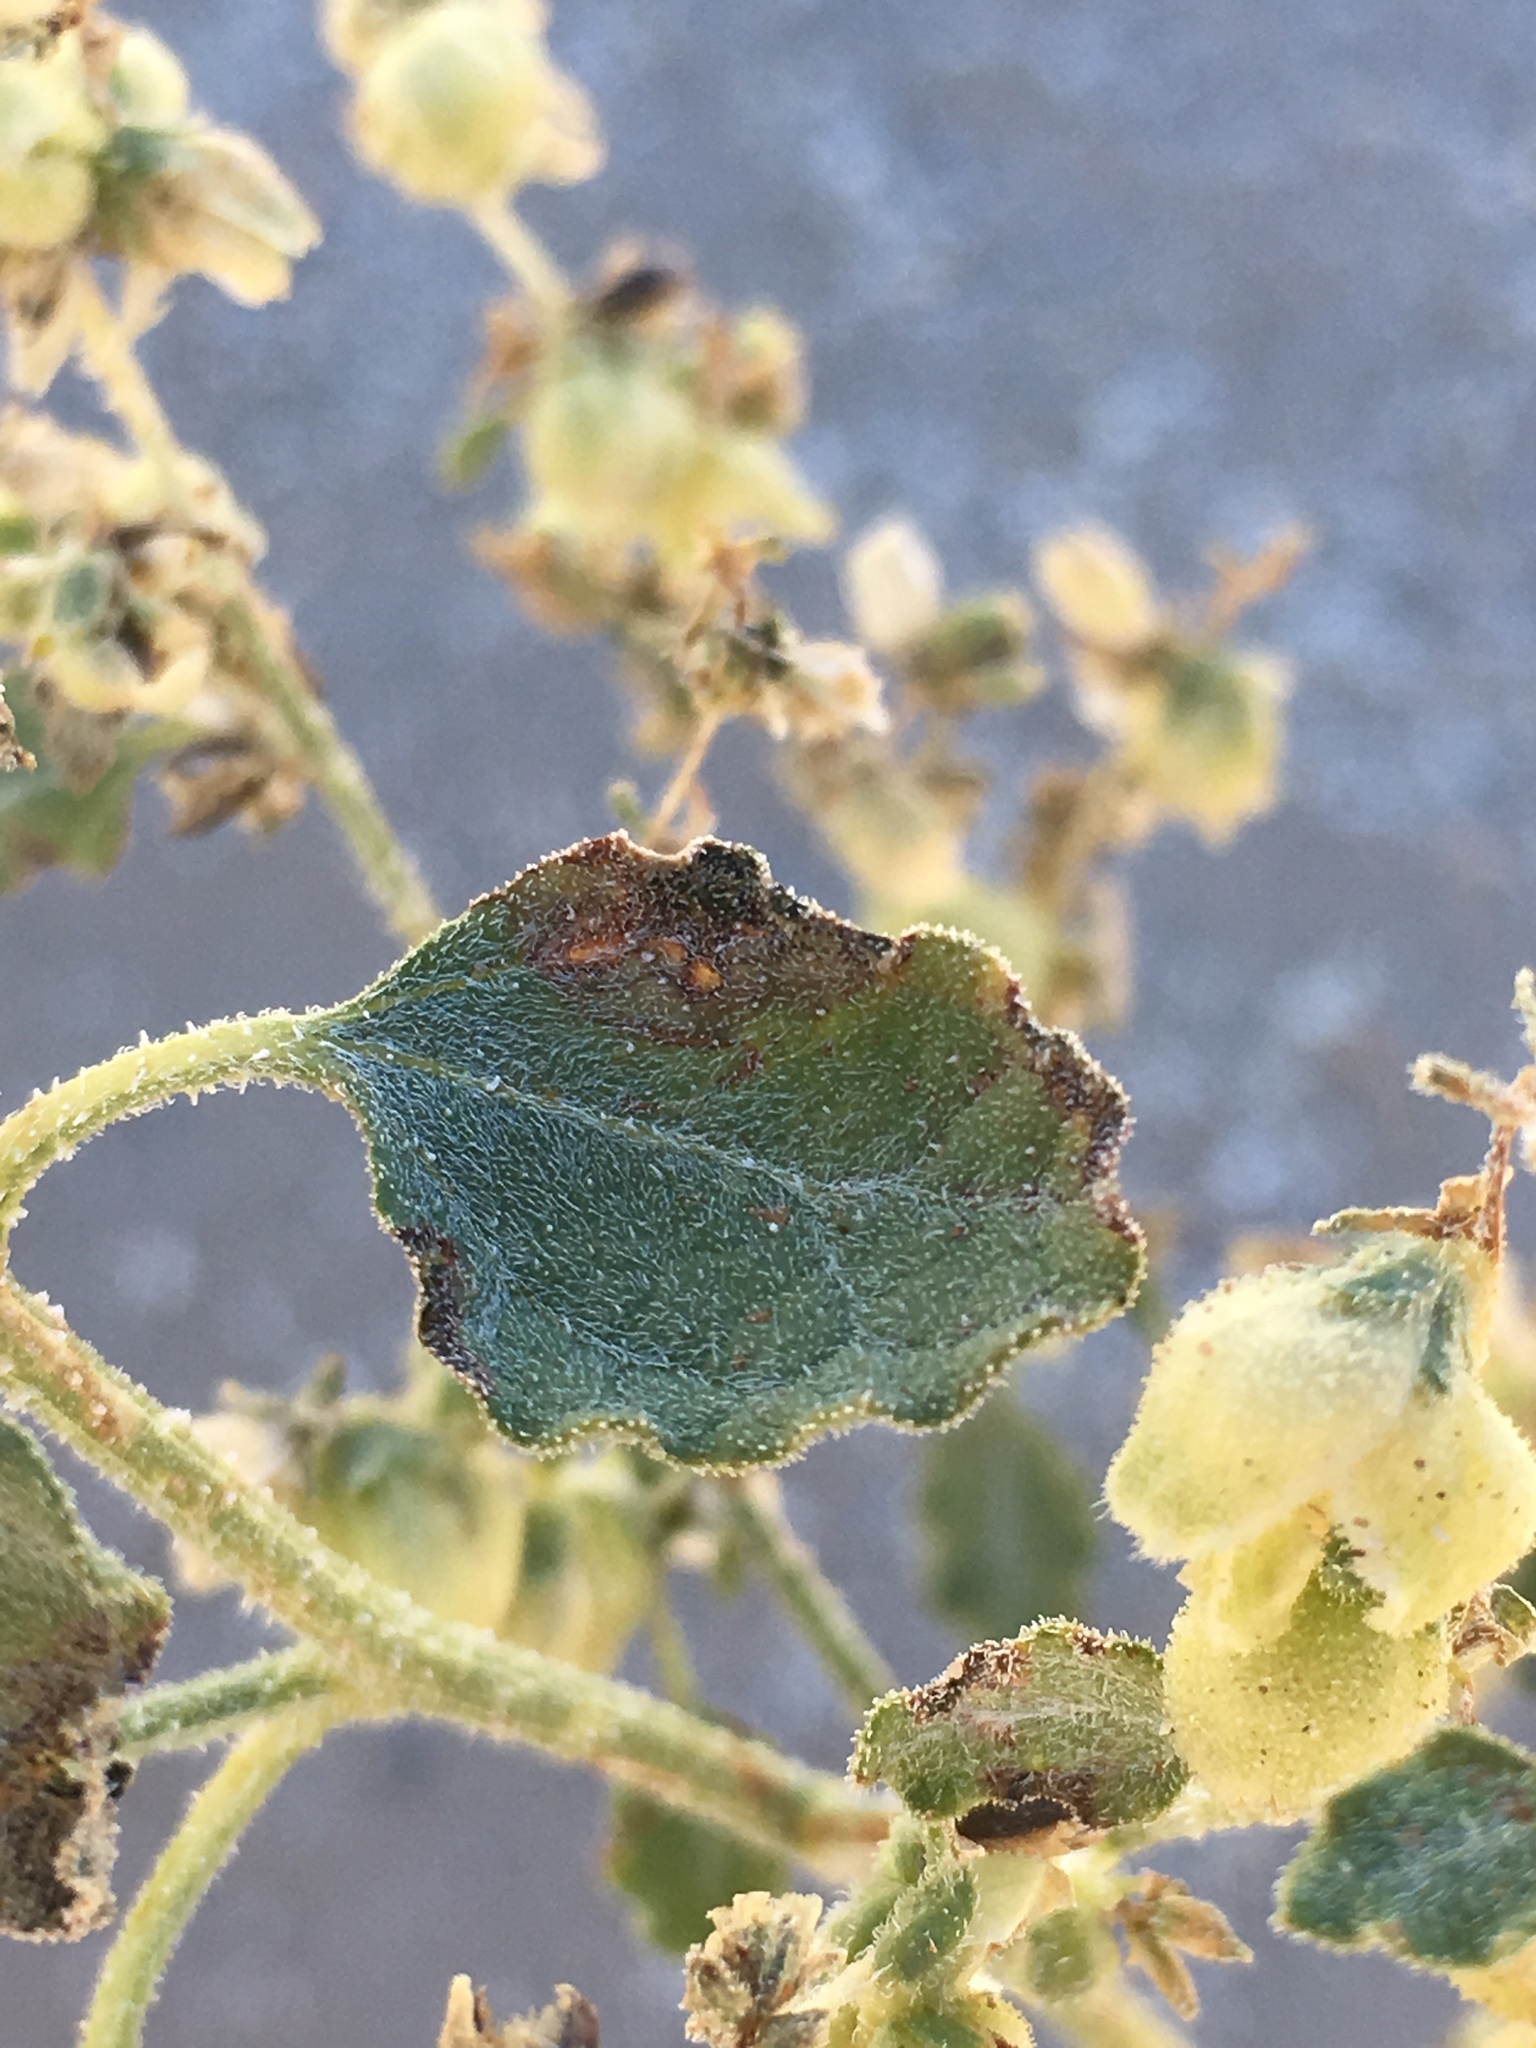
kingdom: Plantae
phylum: Tracheophyta
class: Magnoliopsida
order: Asterales
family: Asteraceae
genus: Dicoria
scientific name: Dicoria canescens
